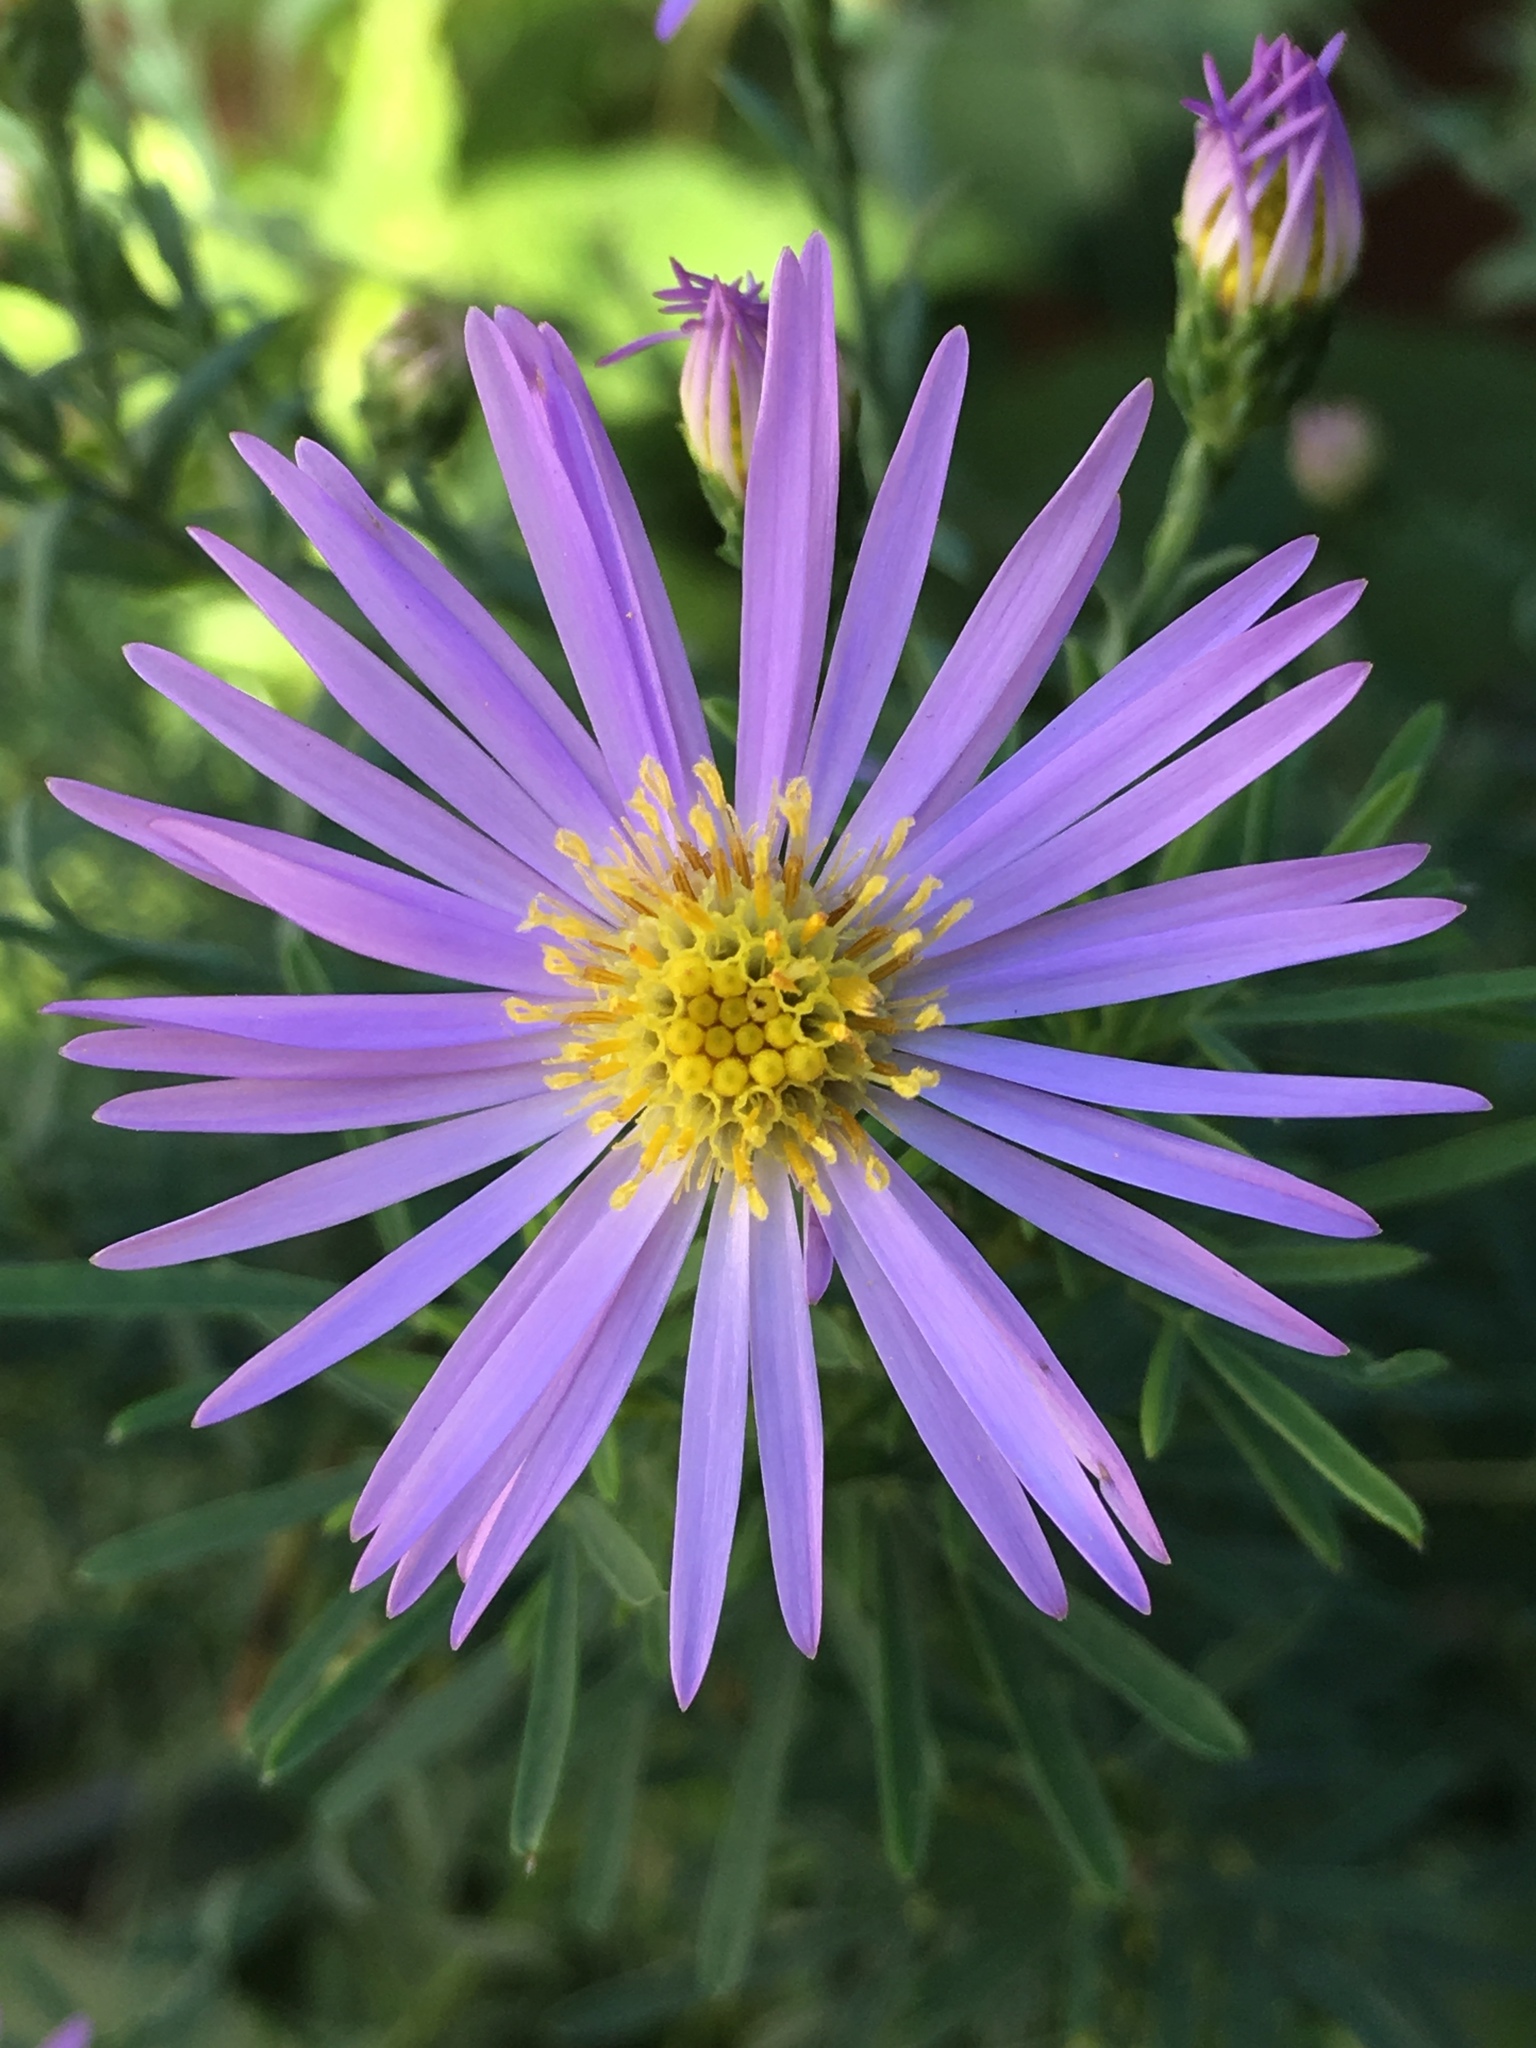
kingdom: Plantae
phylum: Tracheophyta
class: Magnoliopsida
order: Asterales
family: Asteraceae
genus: Symphyotrichum
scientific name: Symphyotrichum laeve
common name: Glaucous aster
